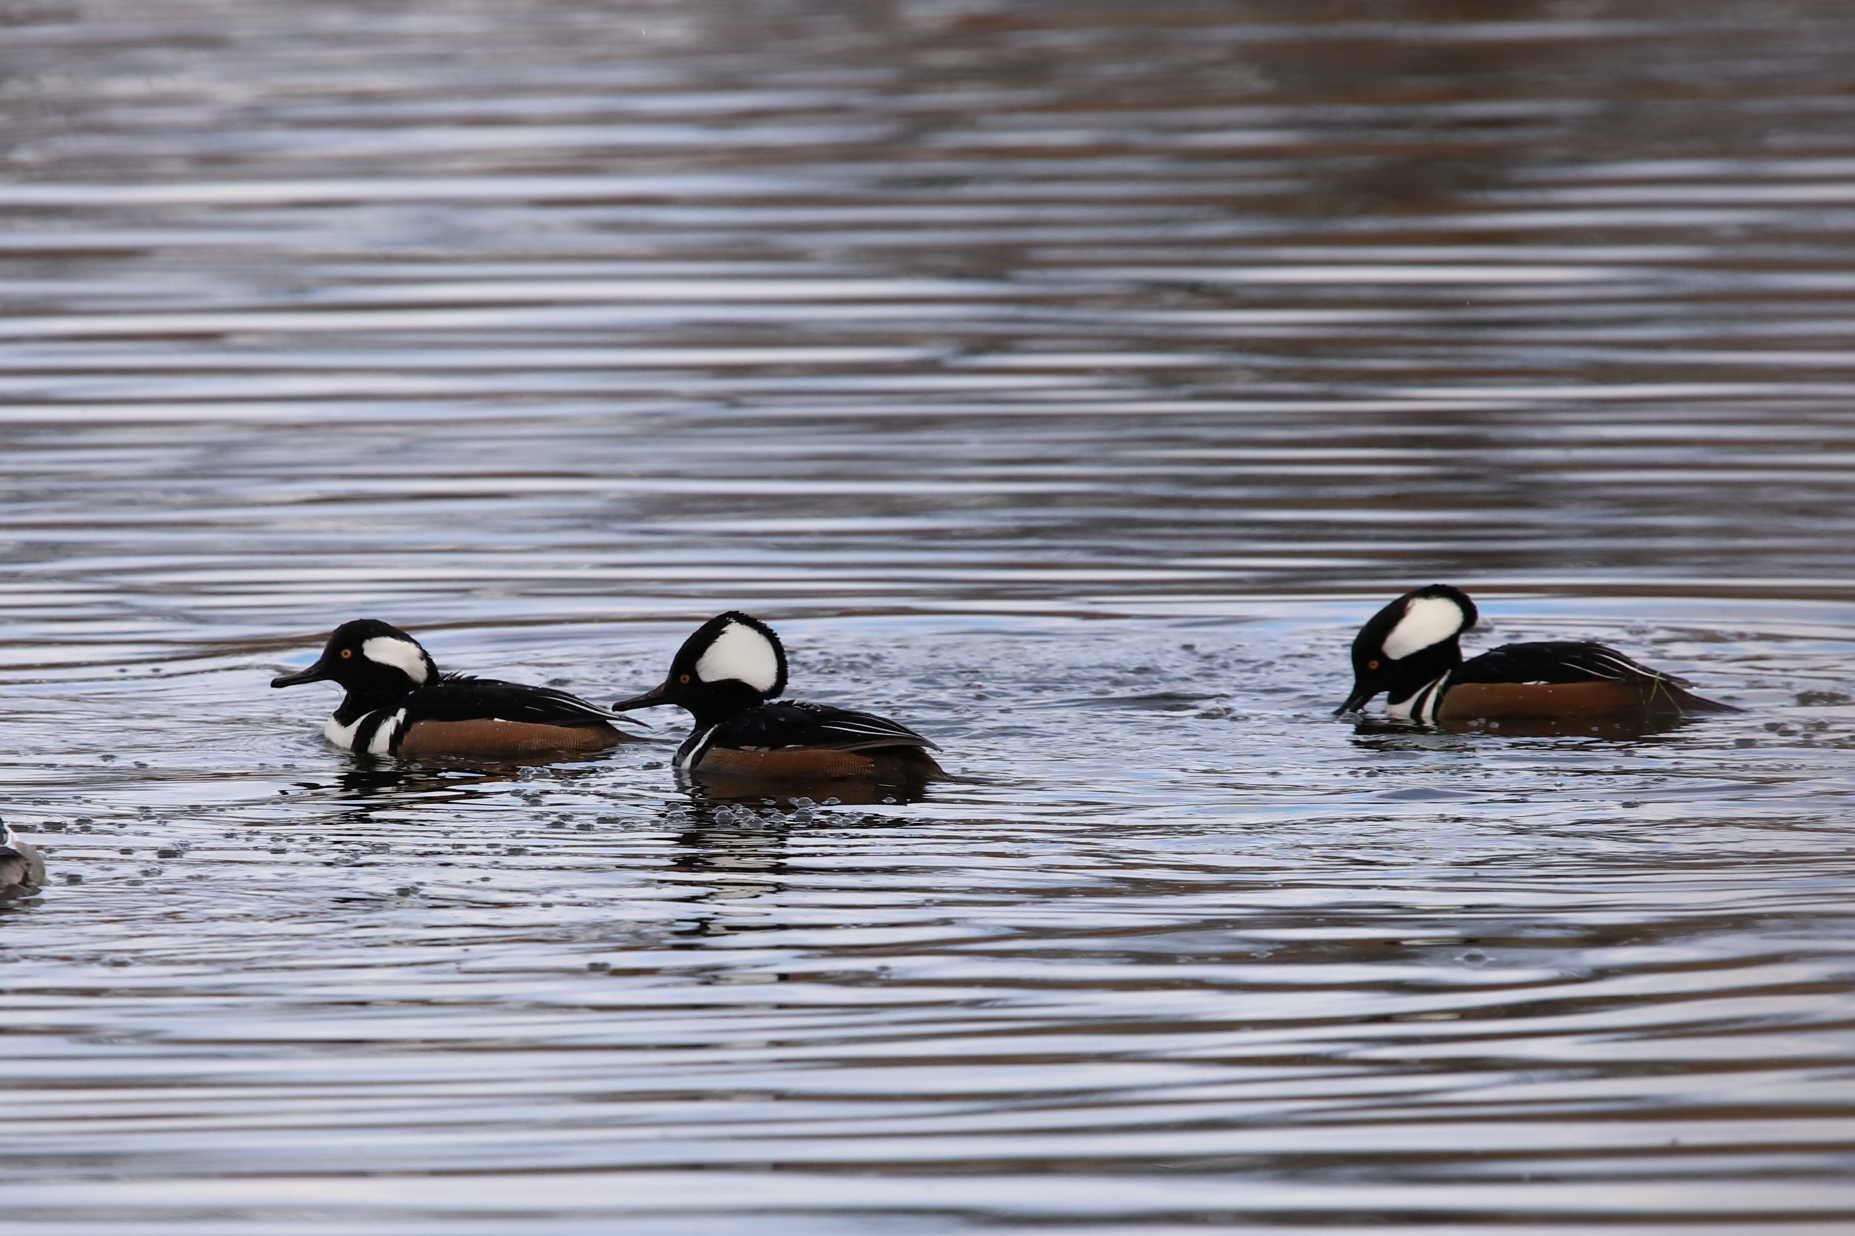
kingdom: Animalia
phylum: Chordata
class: Aves
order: Anseriformes
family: Anatidae
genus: Lophodytes
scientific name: Lophodytes cucullatus
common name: Hooded merganser
